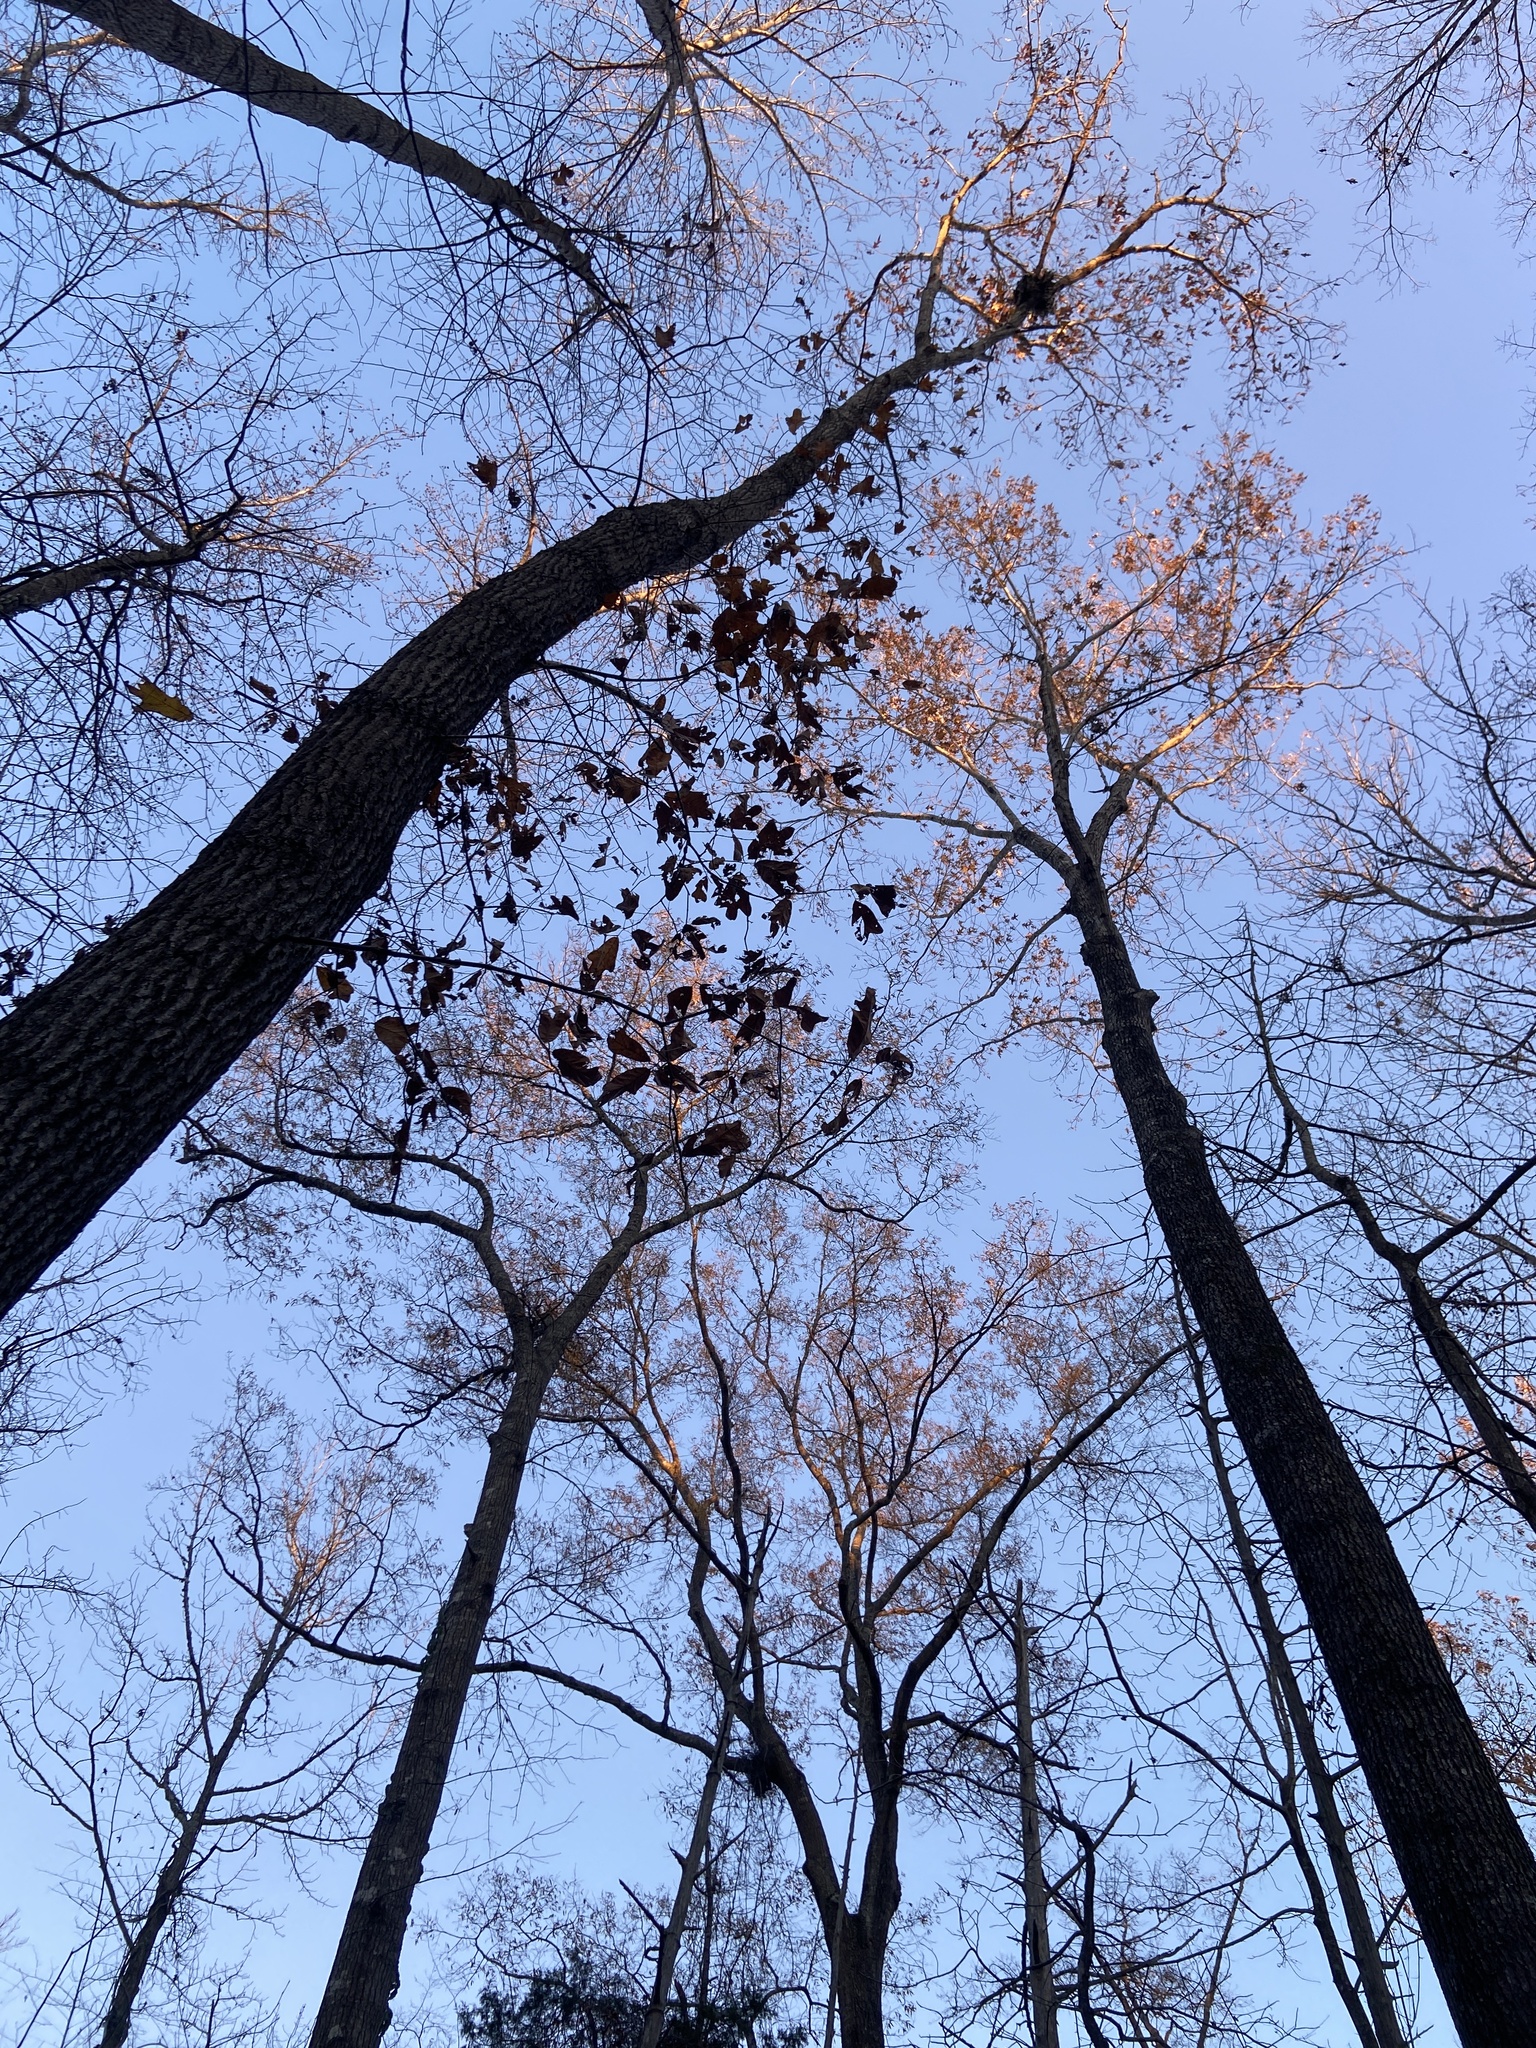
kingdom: Plantae
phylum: Tracheophyta
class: Magnoliopsida
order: Fagales
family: Fagaceae
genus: Quercus
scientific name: Quercus falcata
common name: Southern red oak
